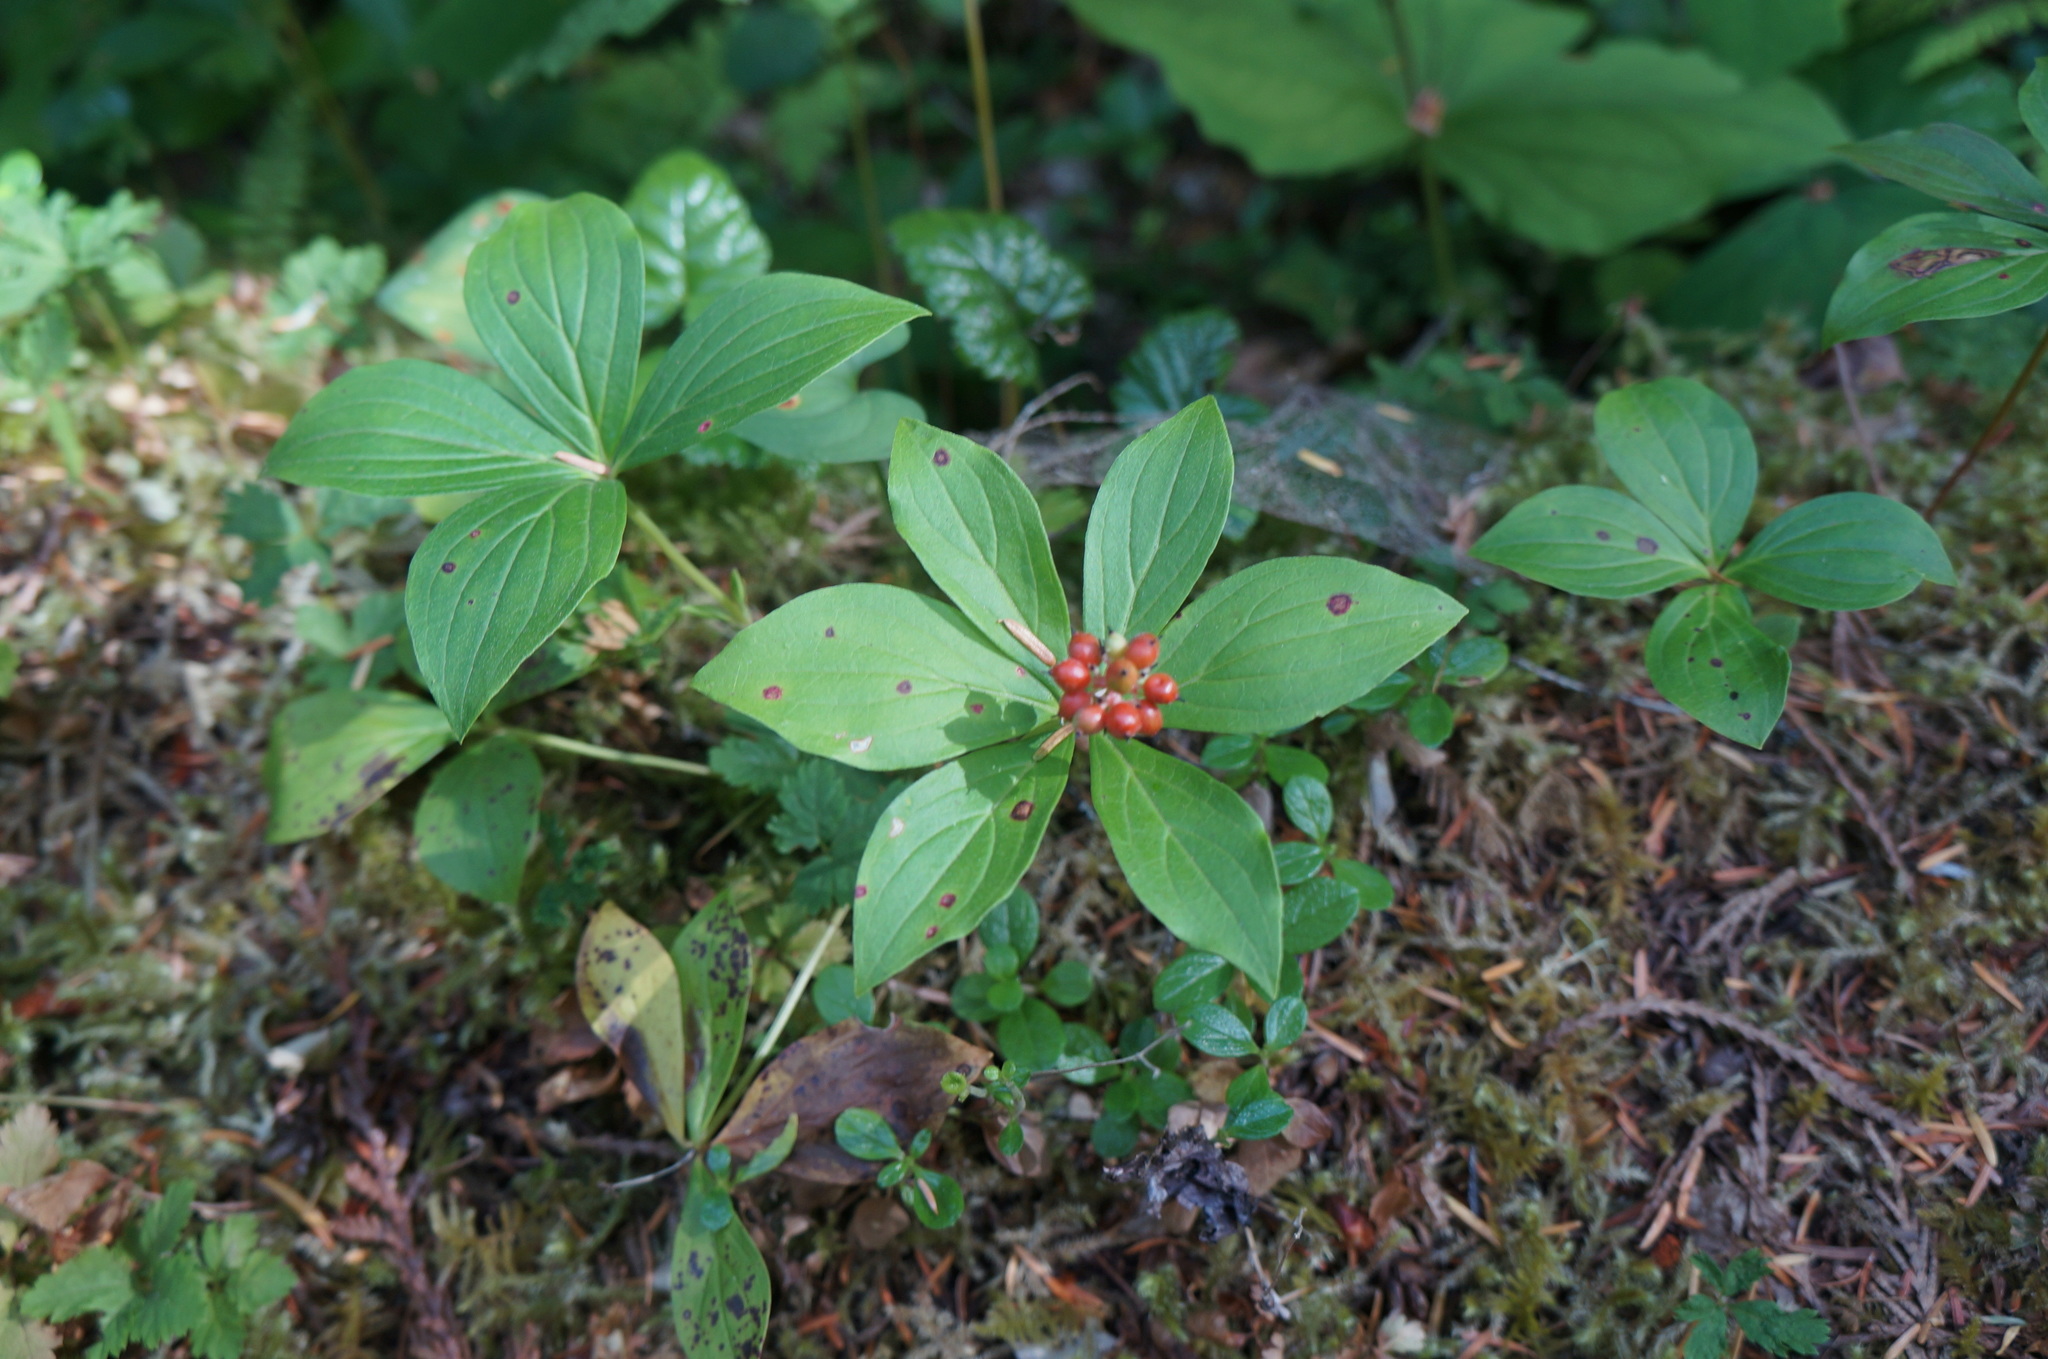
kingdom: Plantae
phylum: Tracheophyta
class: Magnoliopsida
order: Cornales
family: Cornaceae
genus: Cornus
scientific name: Cornus unalaschkensis
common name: Alaska bunchberry
